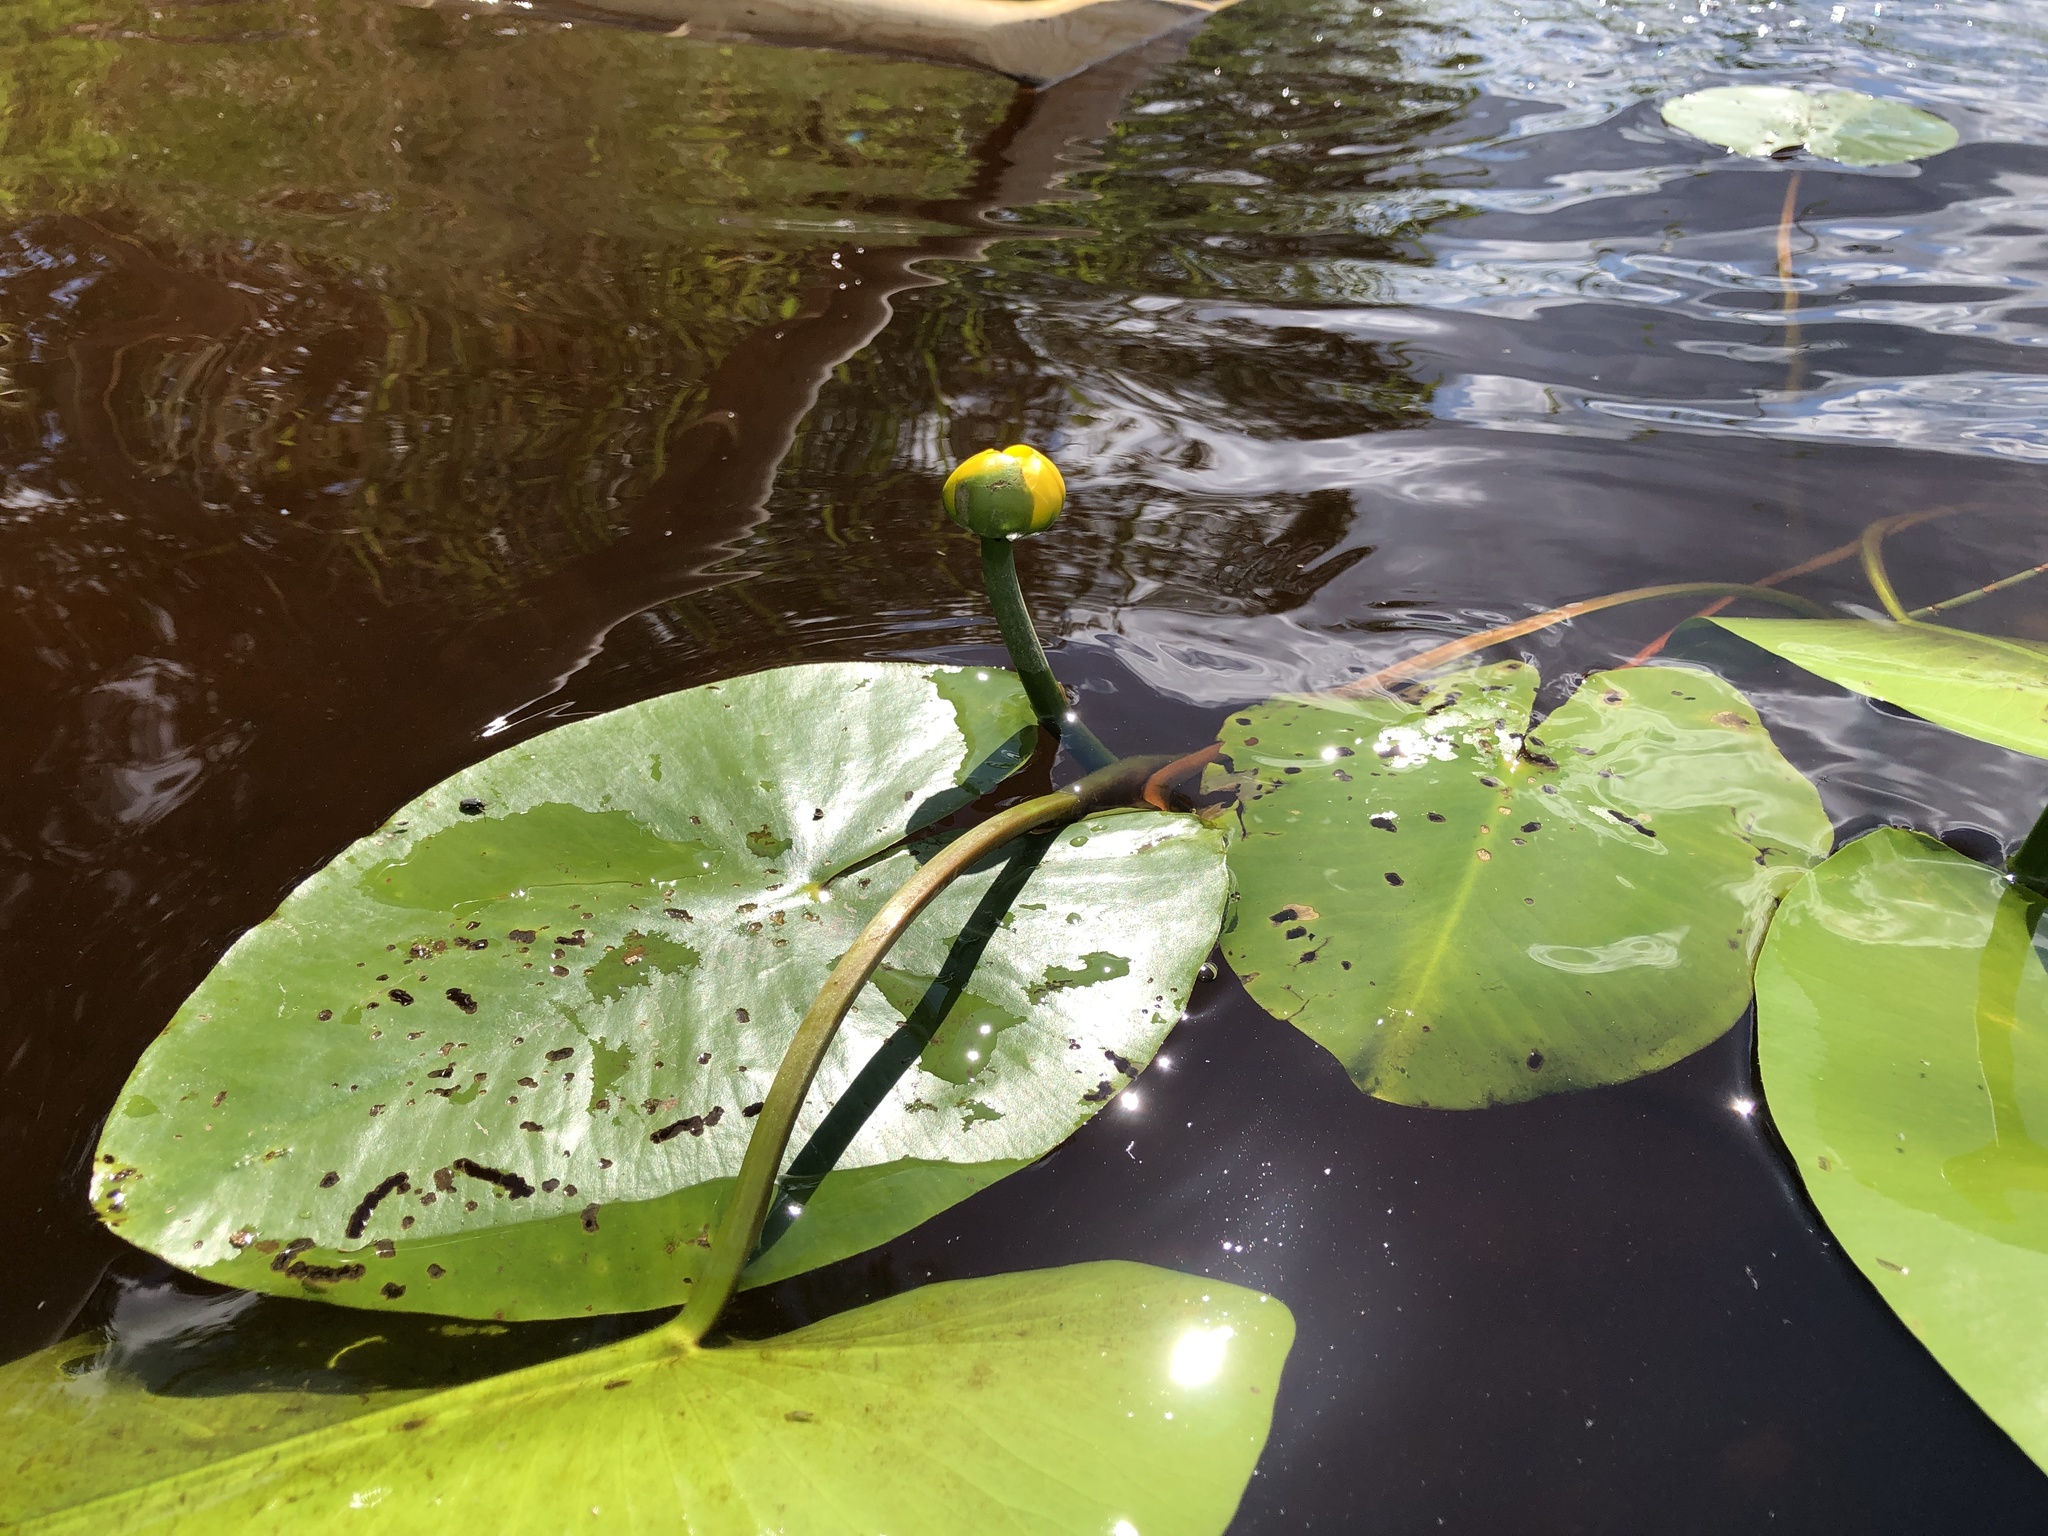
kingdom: Plantae
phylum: Tracheophyta
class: Magnoliopsida
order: Nymphaeales
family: Nymphaeaceae
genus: Nuphar
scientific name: Nuphar lutea
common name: Yellow water-lily
